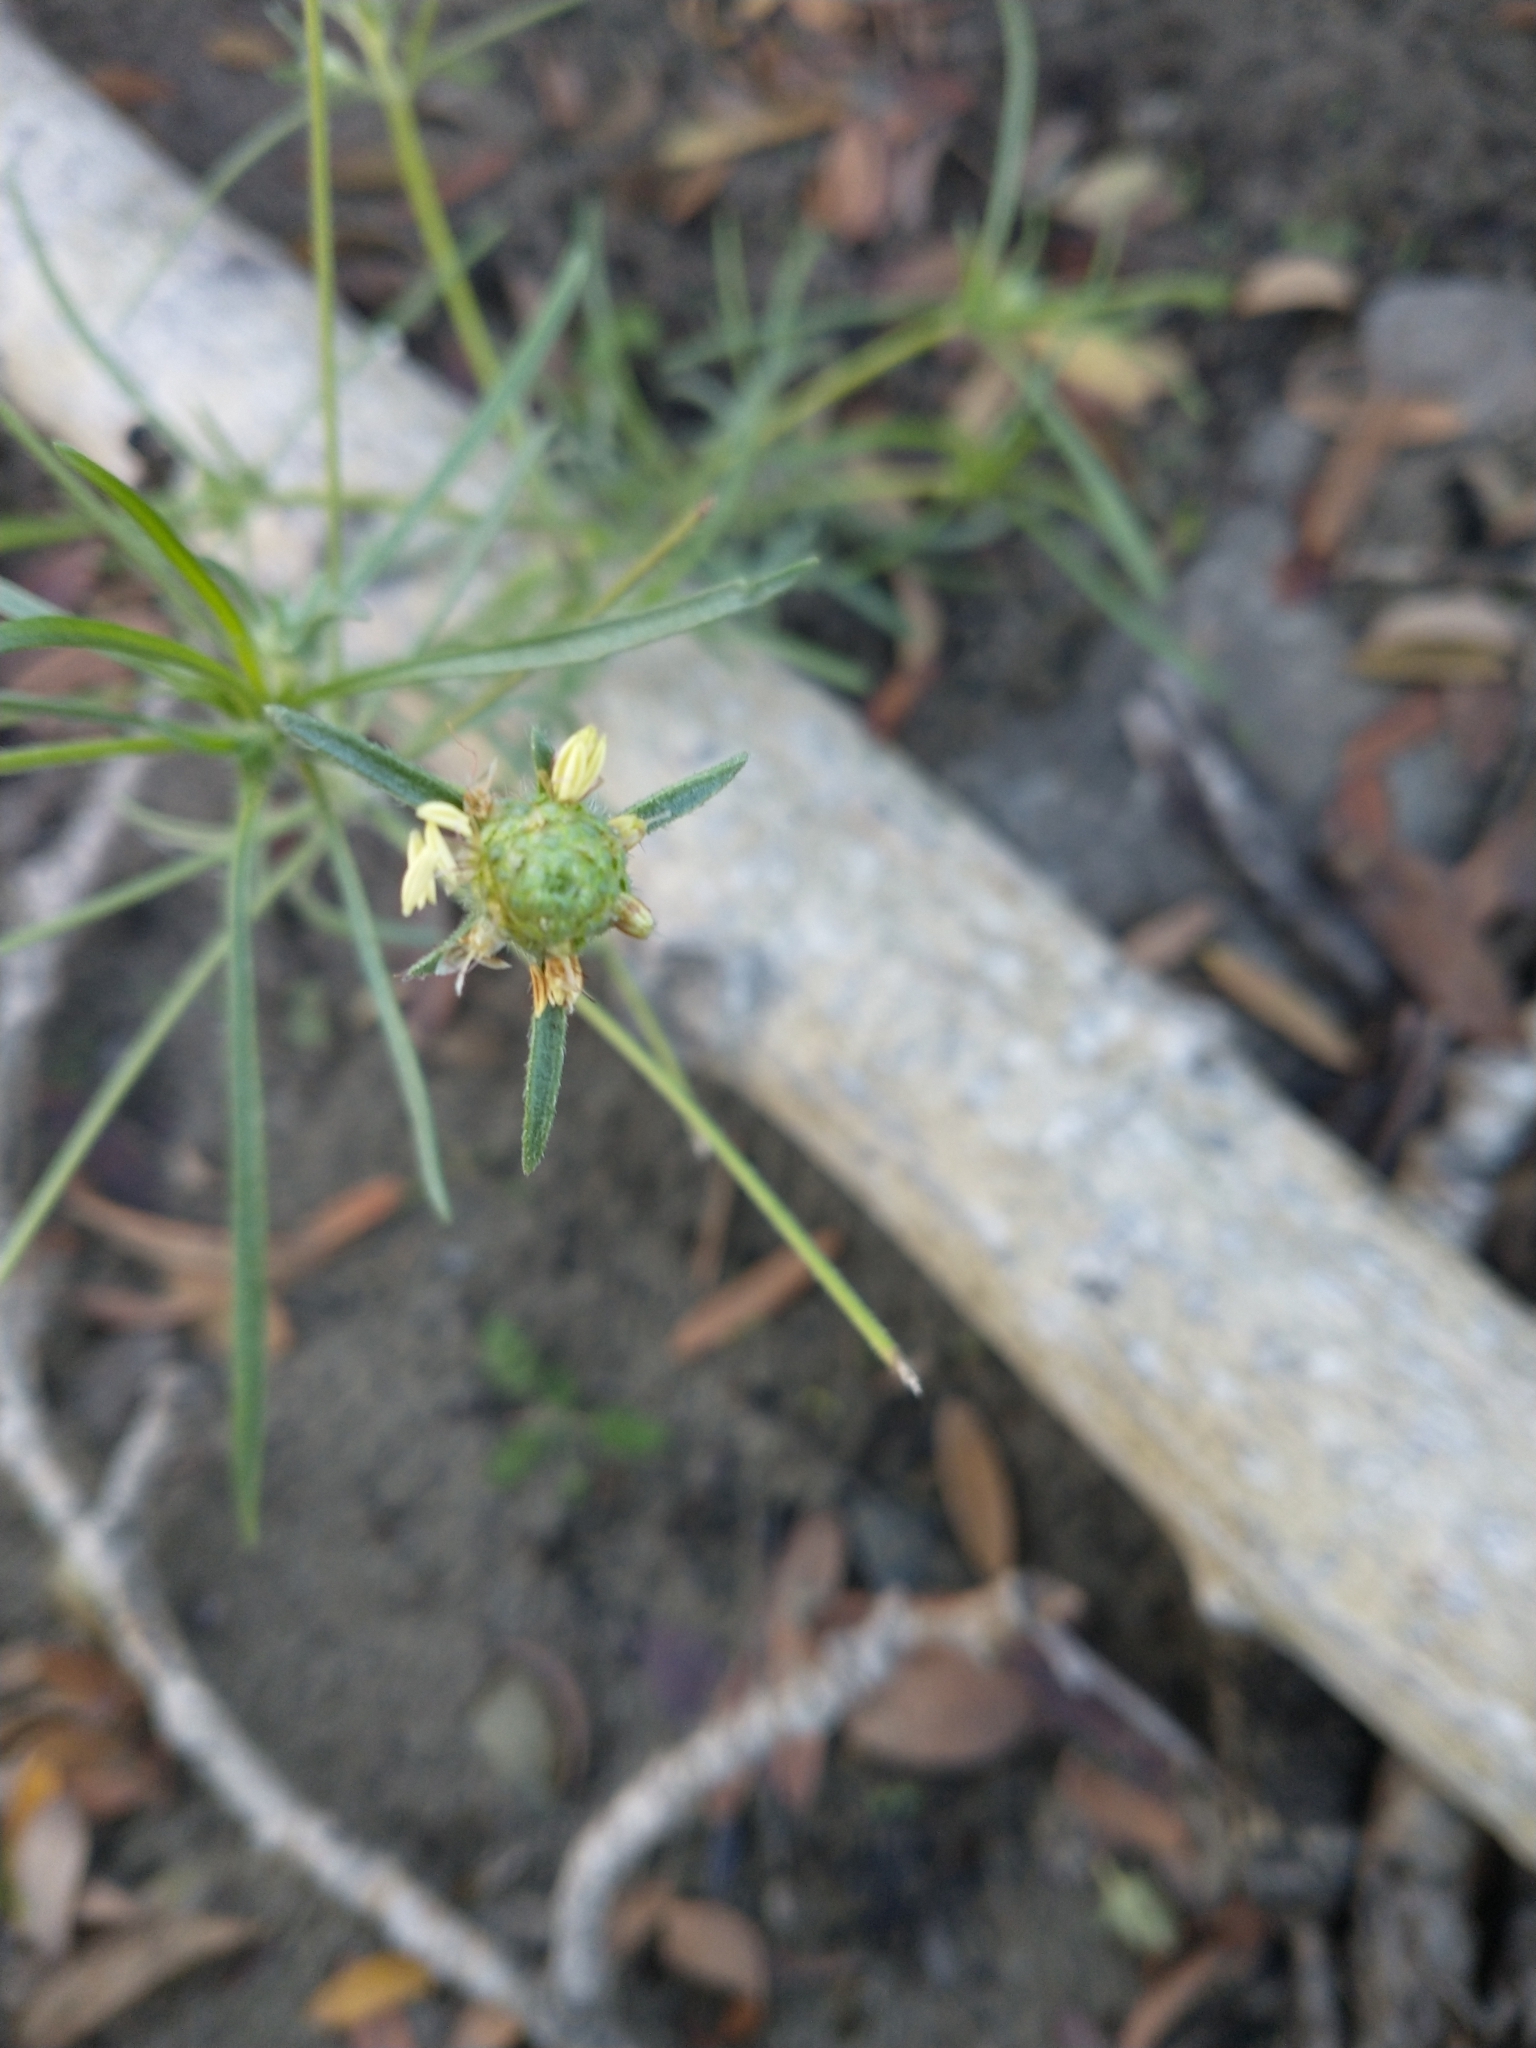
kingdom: Plantae
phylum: Tracheophyta
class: Magnoliopsida
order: Caryophyllales
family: Caryophyllaceae
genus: Spergula
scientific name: Spergula arvensis
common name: Corn spurrey
